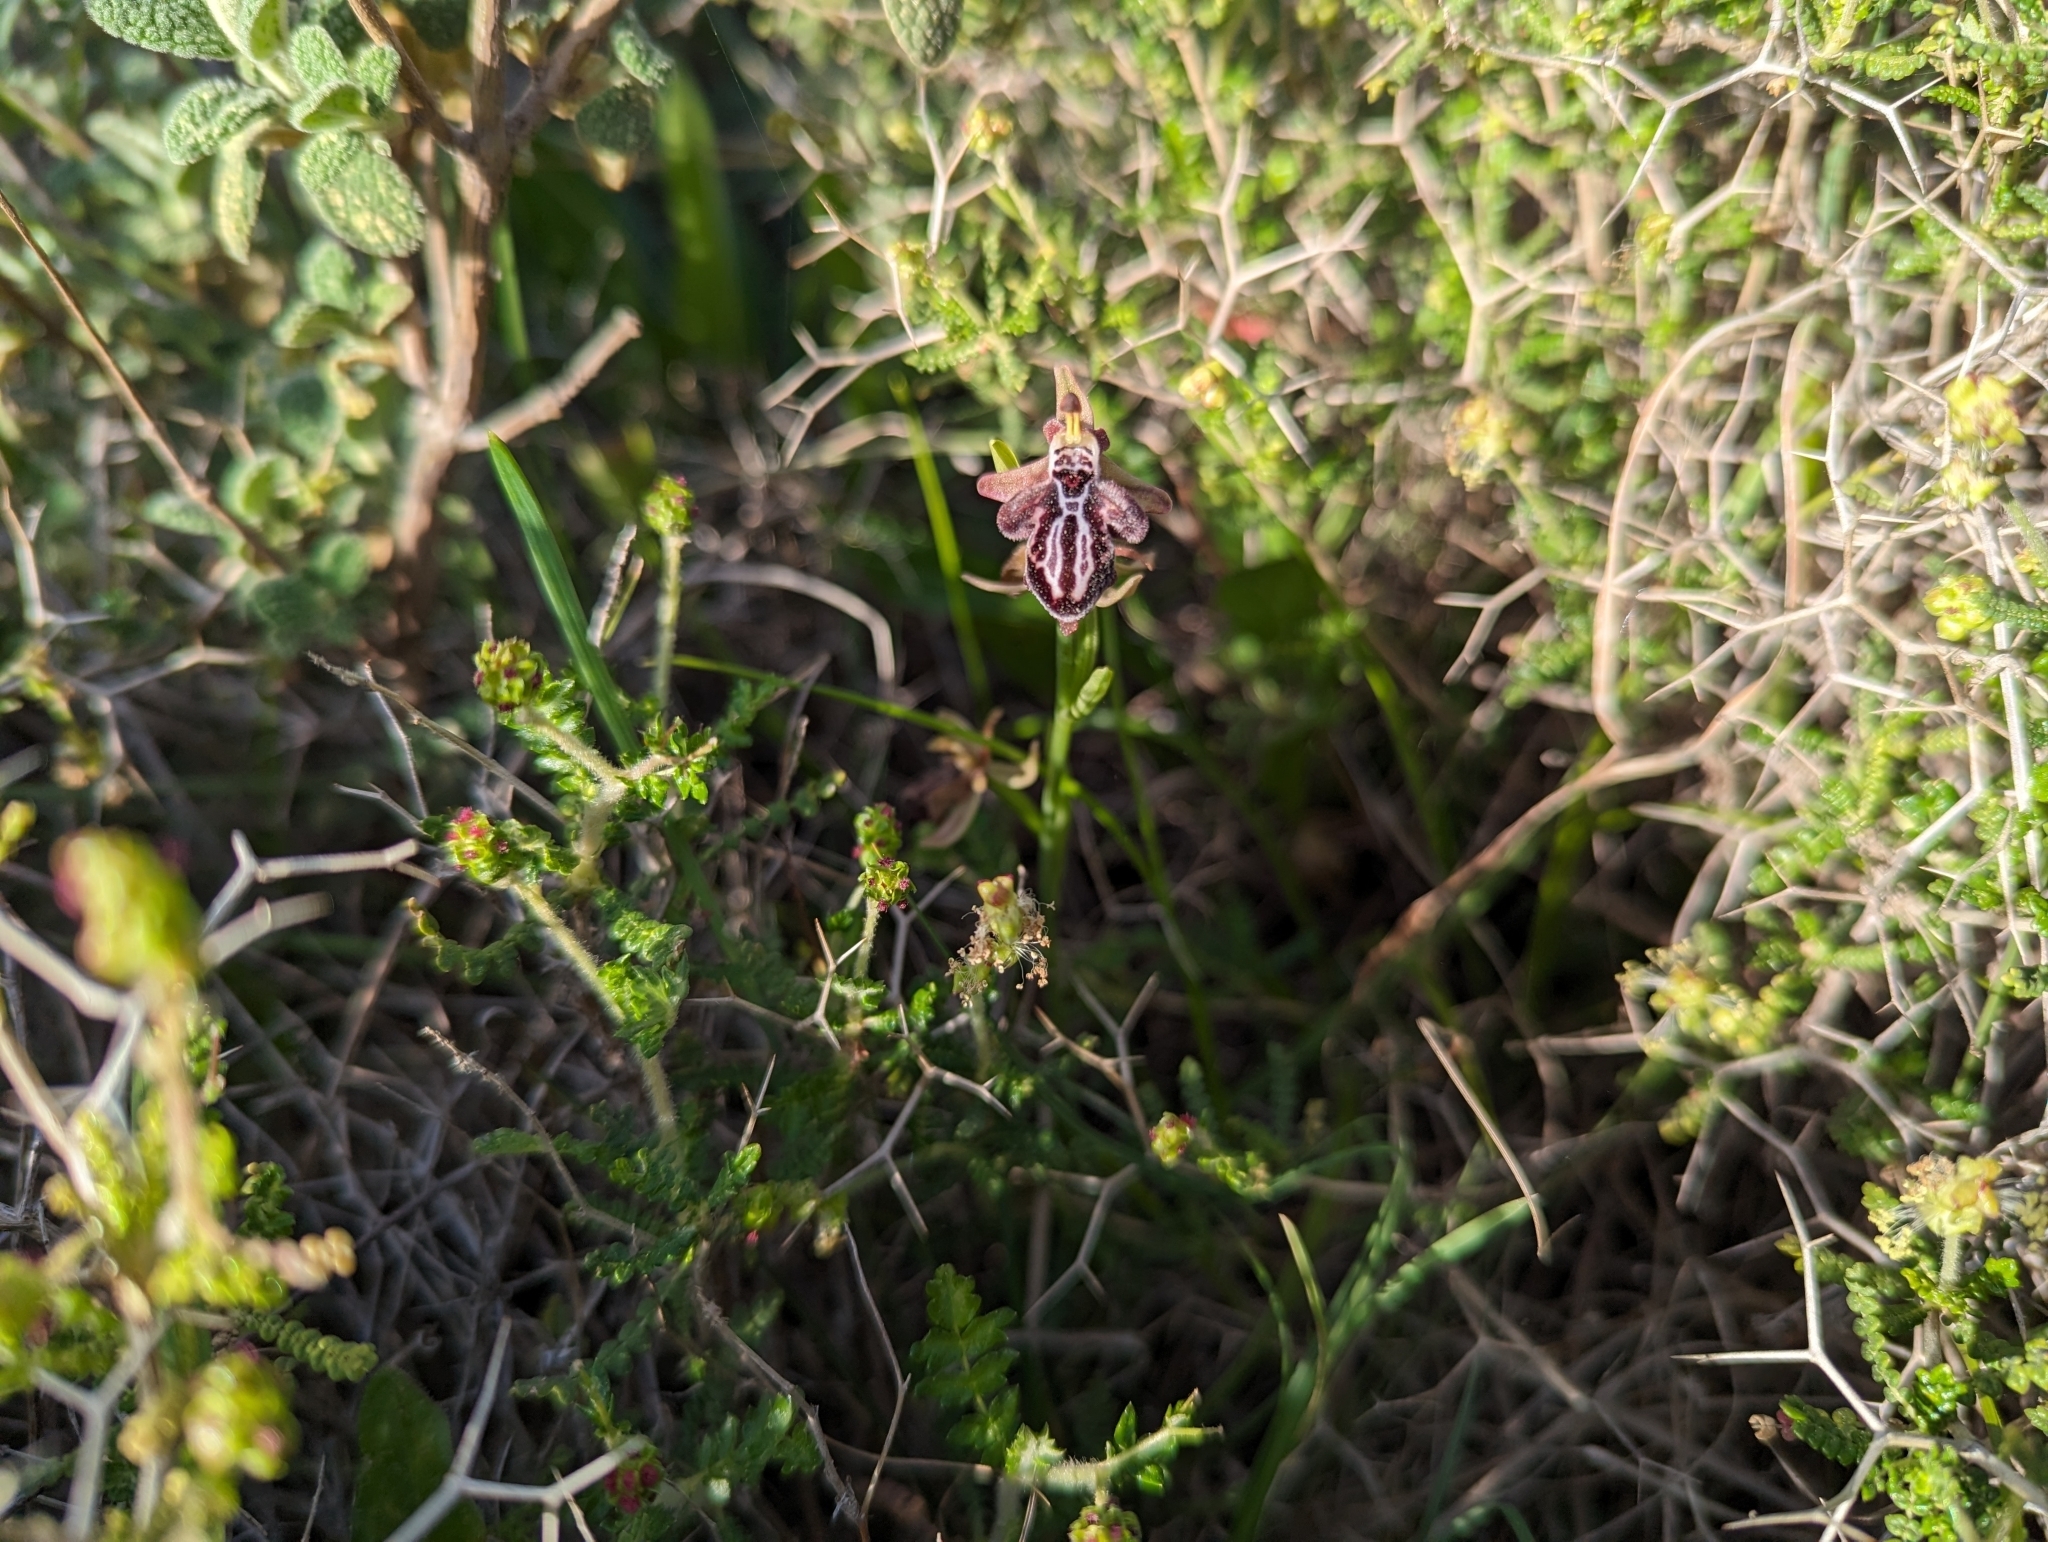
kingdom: Plantae
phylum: Tracheophyta
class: Liliopsida
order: Asparagales
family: Orchidaceae
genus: Ophrys
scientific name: Ophrys cretica
